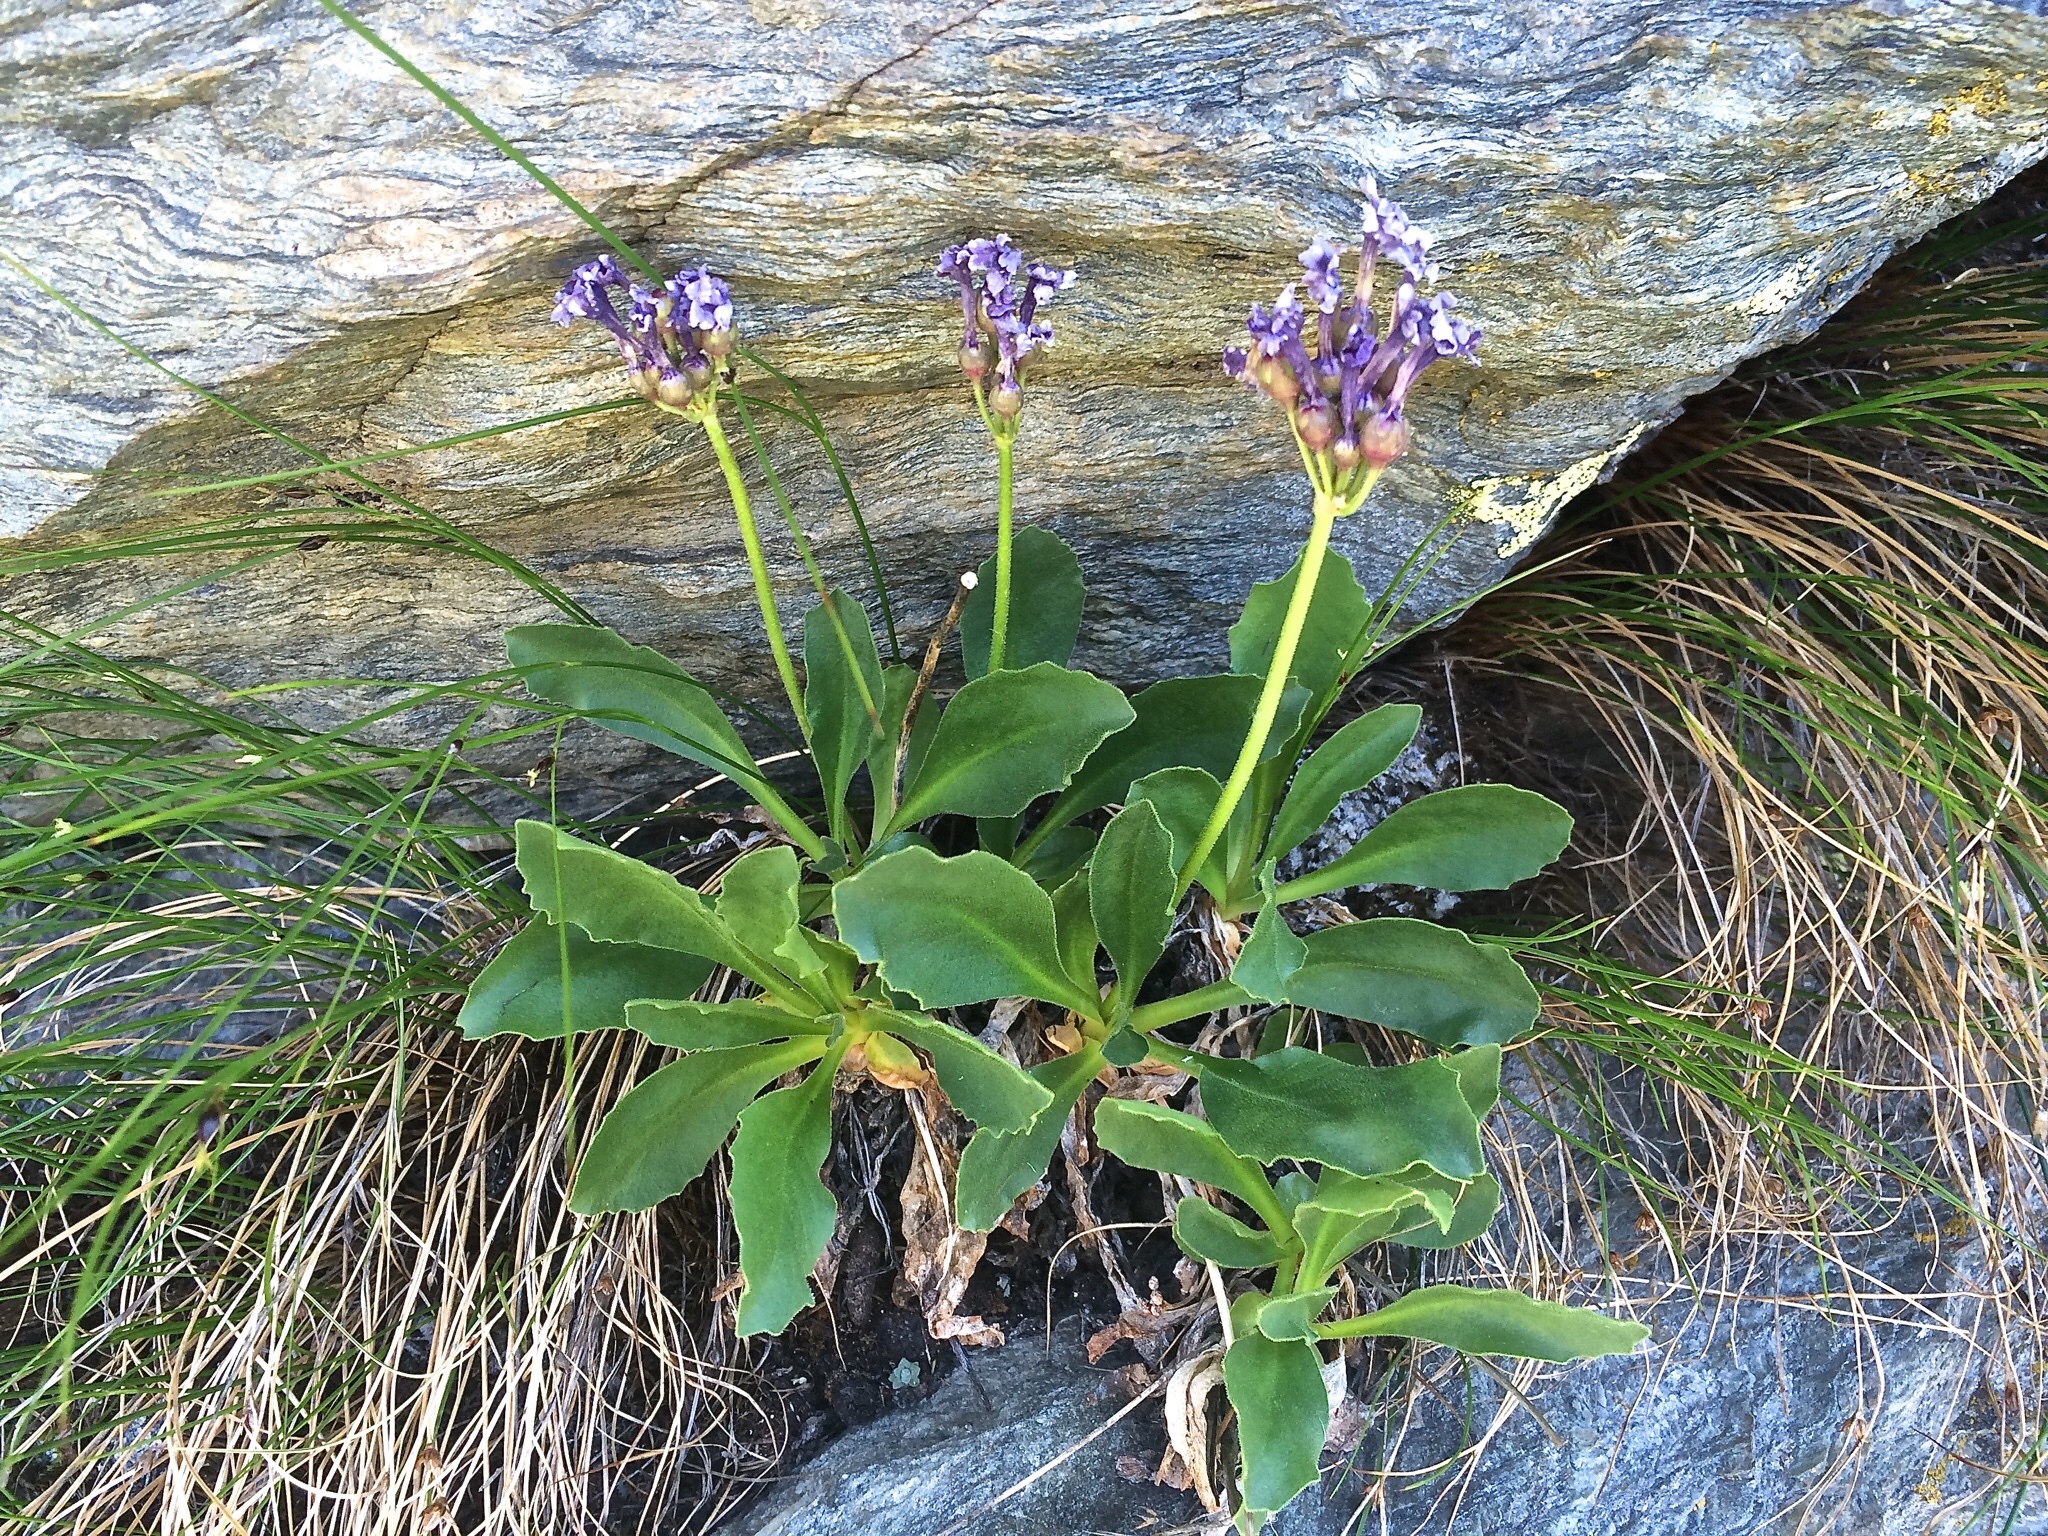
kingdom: Plantae
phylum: Tracheophyta
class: Magnoliopsida
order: Ericales
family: Primulaceae
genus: Primula
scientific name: Primula latifolia
